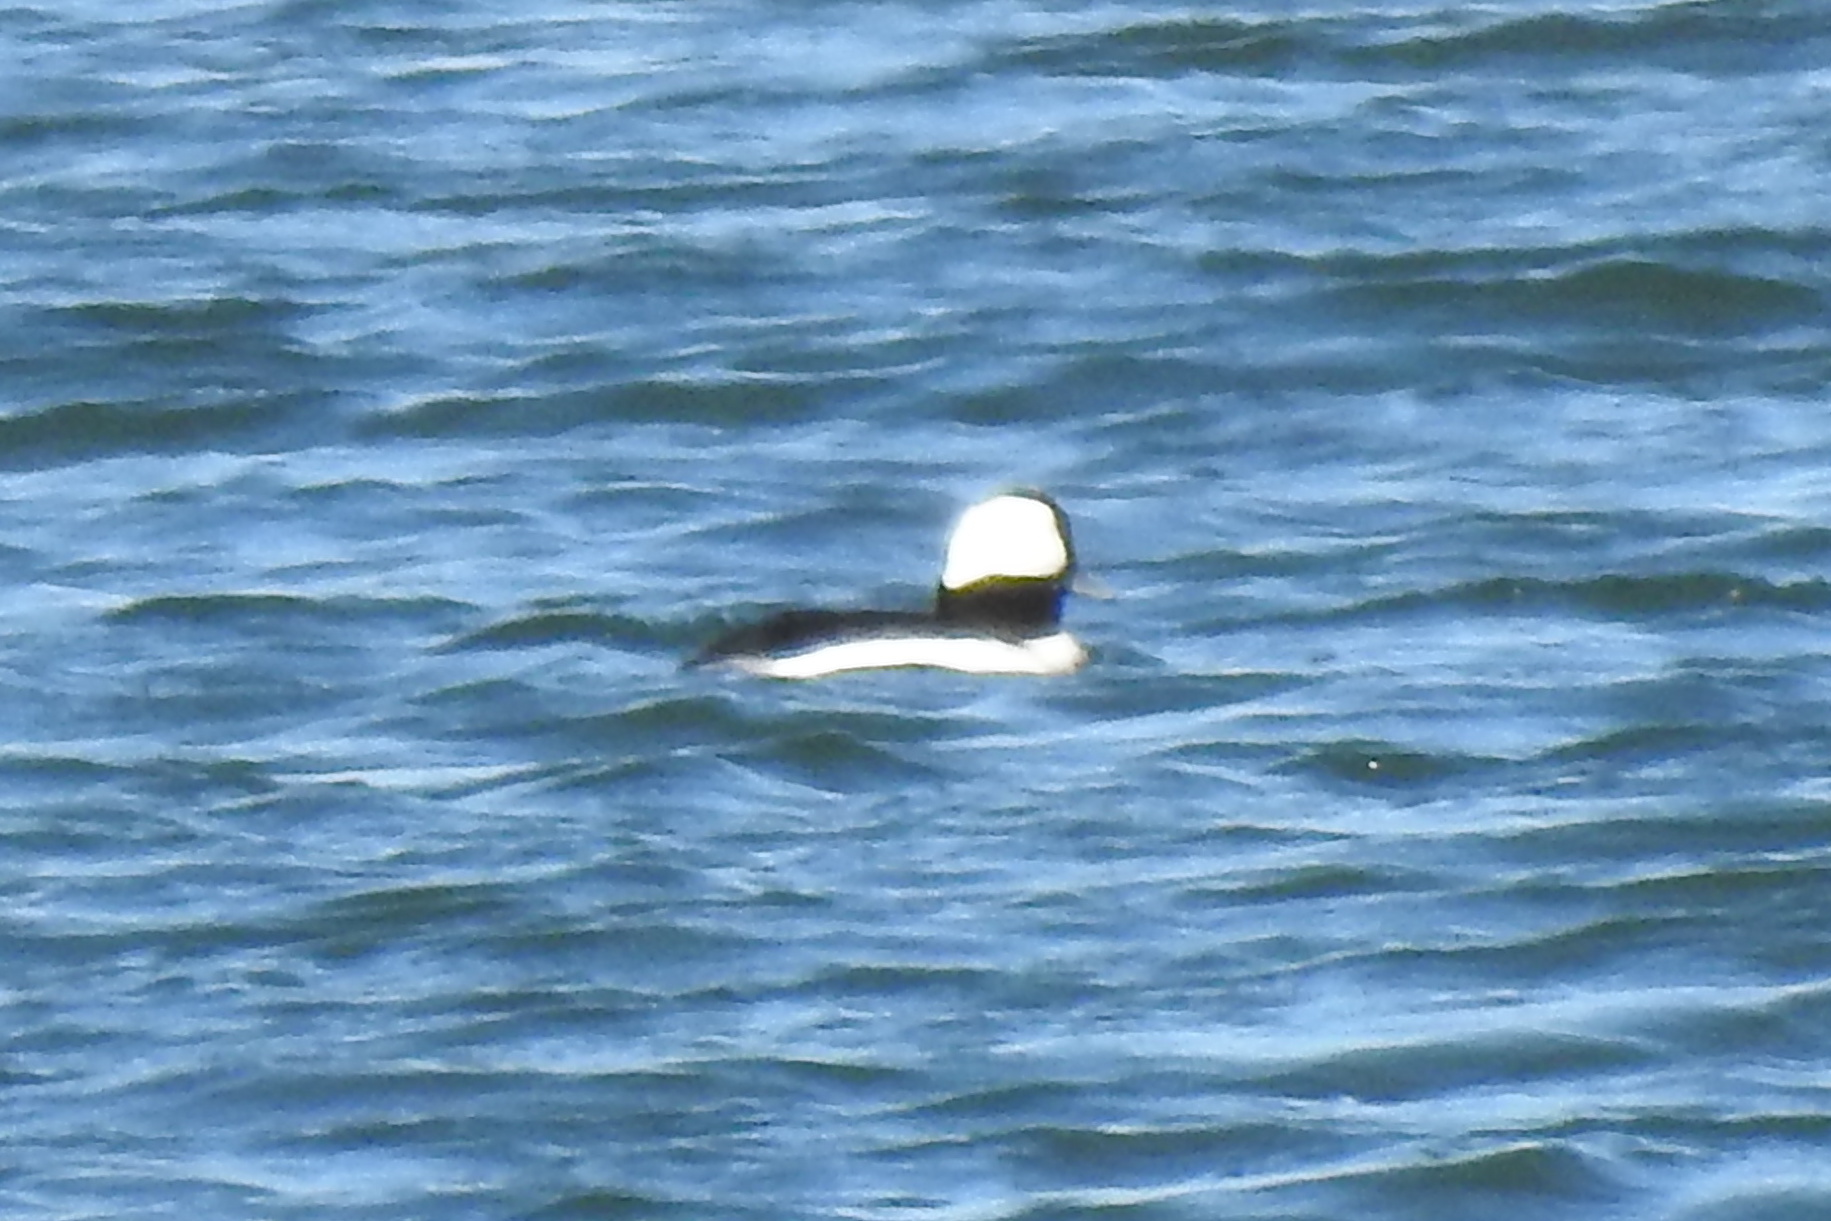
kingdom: Animalia
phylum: Chordata
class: Aves
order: Anseriformes
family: Anatidae
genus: Bucephala
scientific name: Bucephala albeola
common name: Bufflehead
